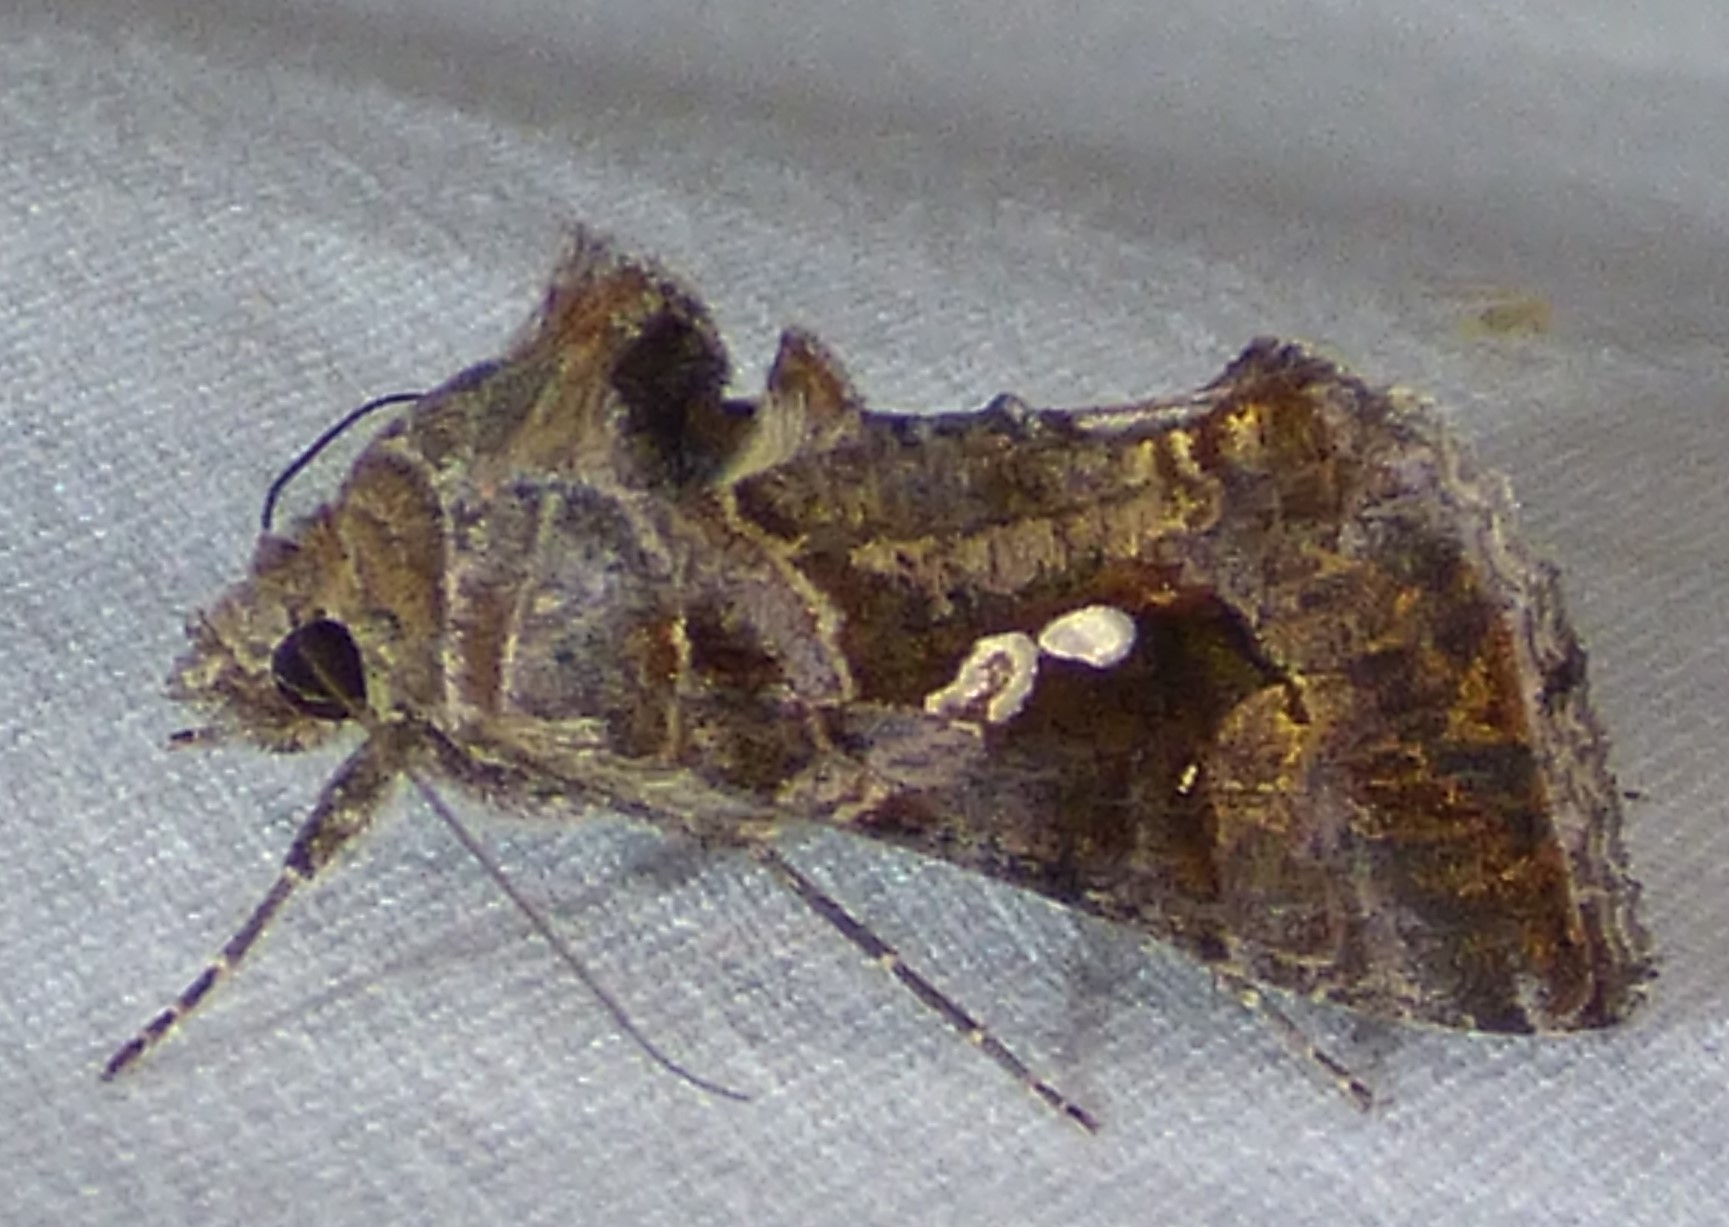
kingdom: Animalia
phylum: Arthropoda
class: Insecta
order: Lepidoptera
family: Noctuidae
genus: Chrysodeixis
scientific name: Chrysodeixis includens
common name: Cutworm moth
